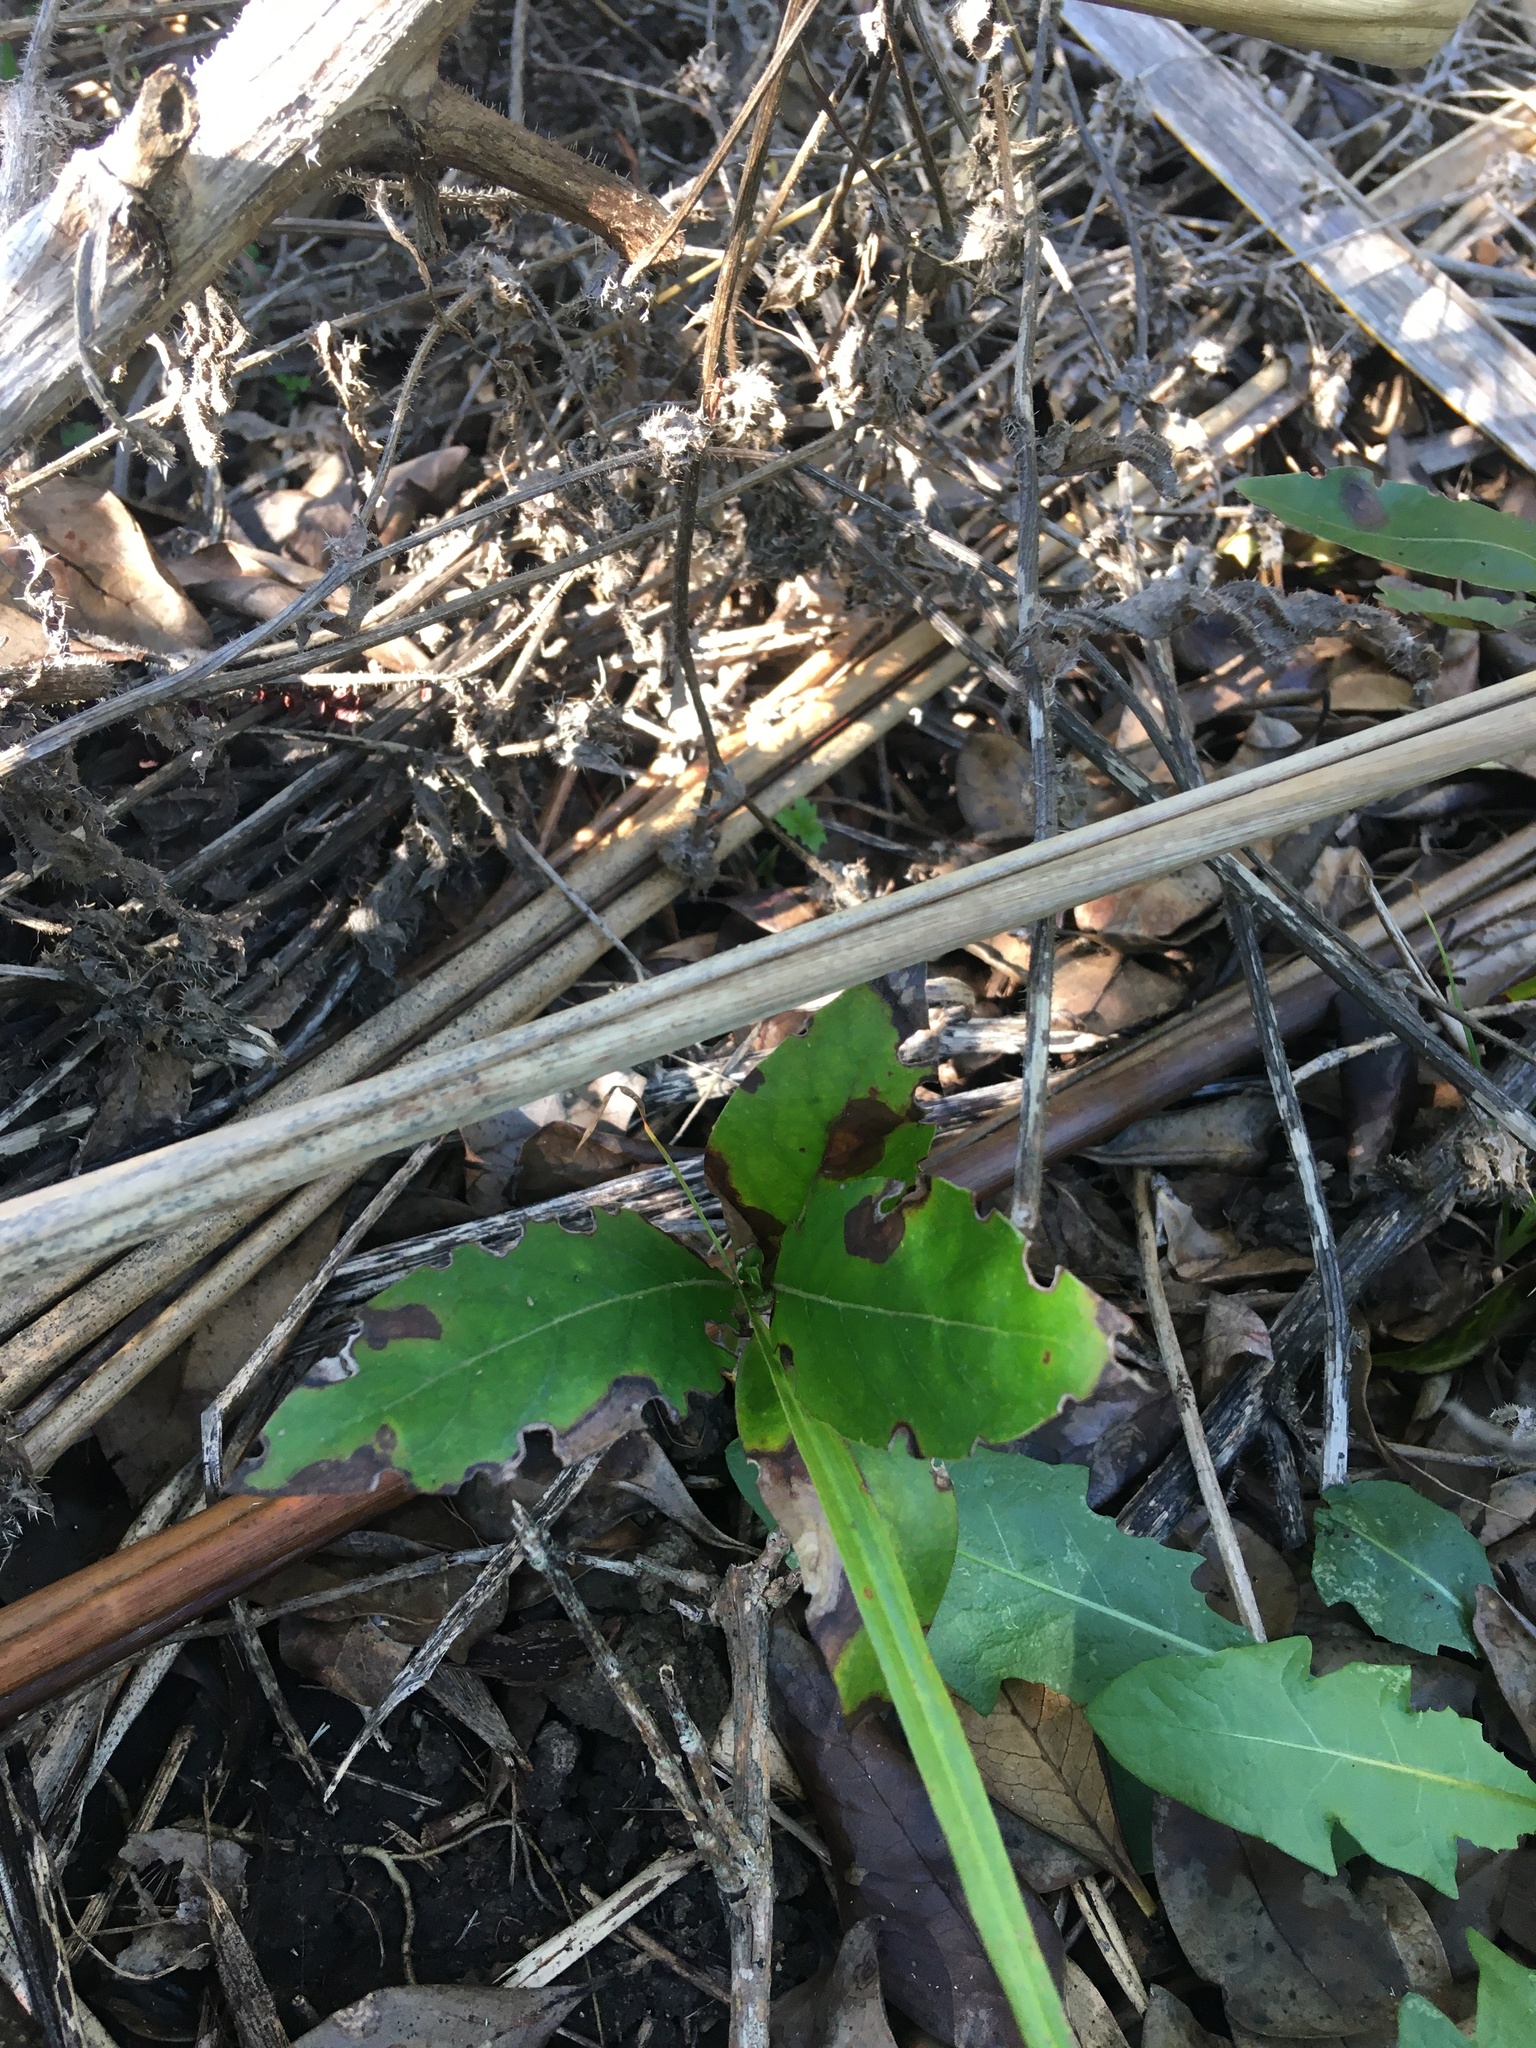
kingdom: Plantae
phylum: Tracheophyta
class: Magnoliopsida
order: Gentianales
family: Rubiaceae
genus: Coprosma
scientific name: Coprosma robusta
